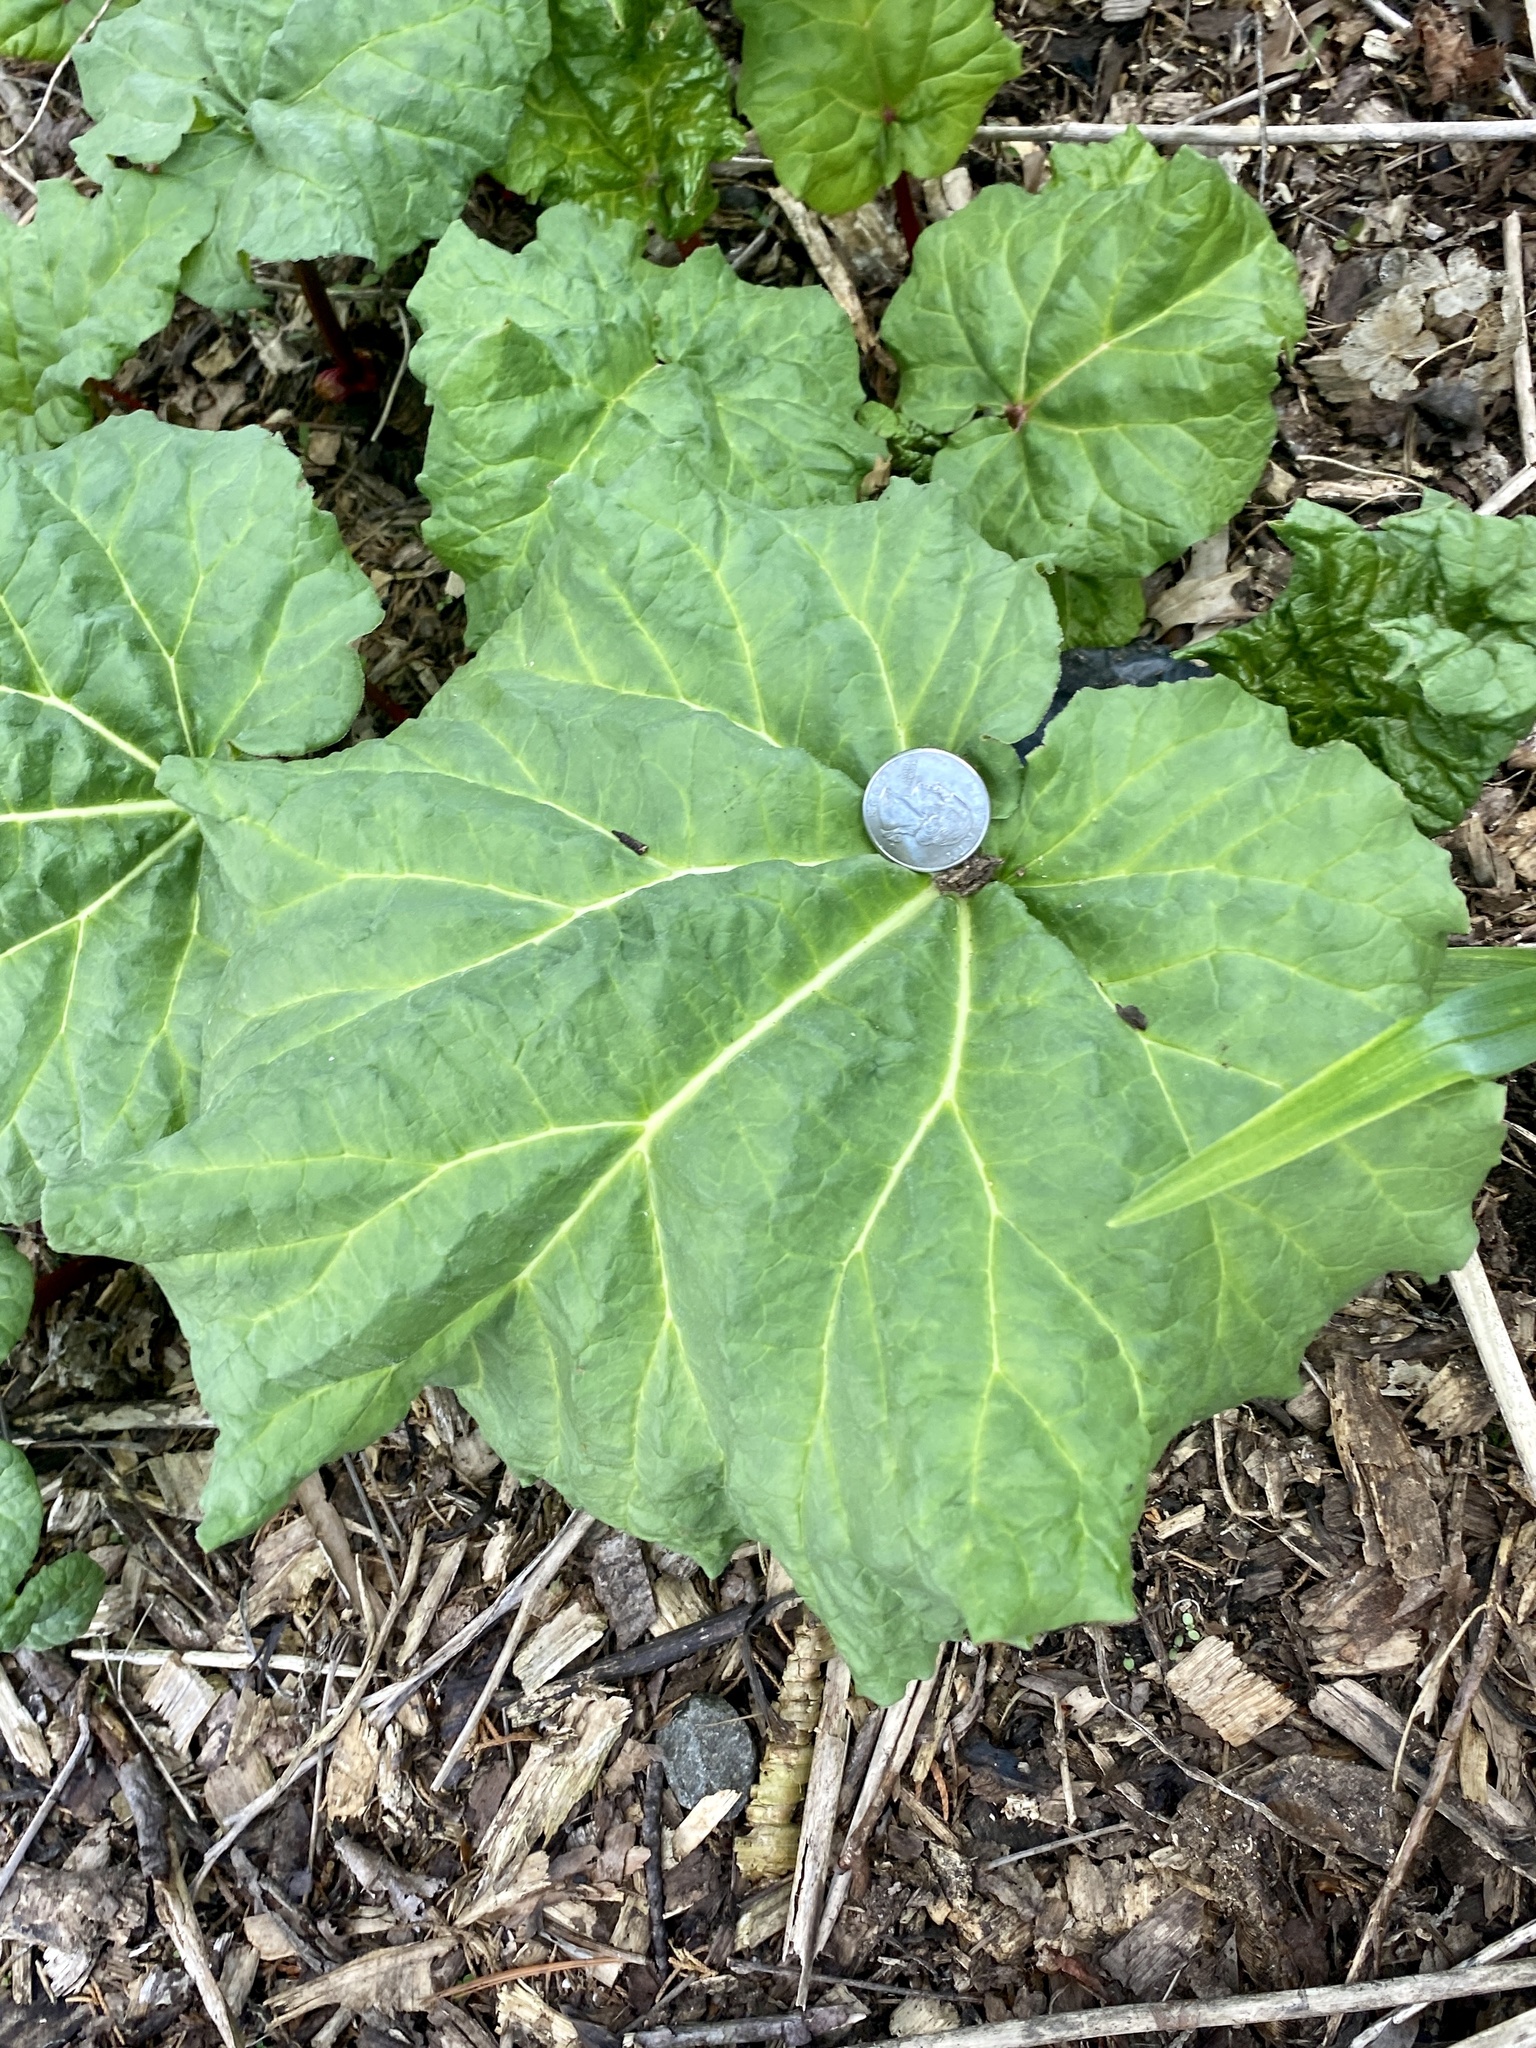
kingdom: Plantae
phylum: Tracheophyta
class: Magnoliopsida
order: Caryophyllales
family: Polygonaceae
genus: Rheum
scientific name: Rheum rhabarbarum
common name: Garden rhubarb
